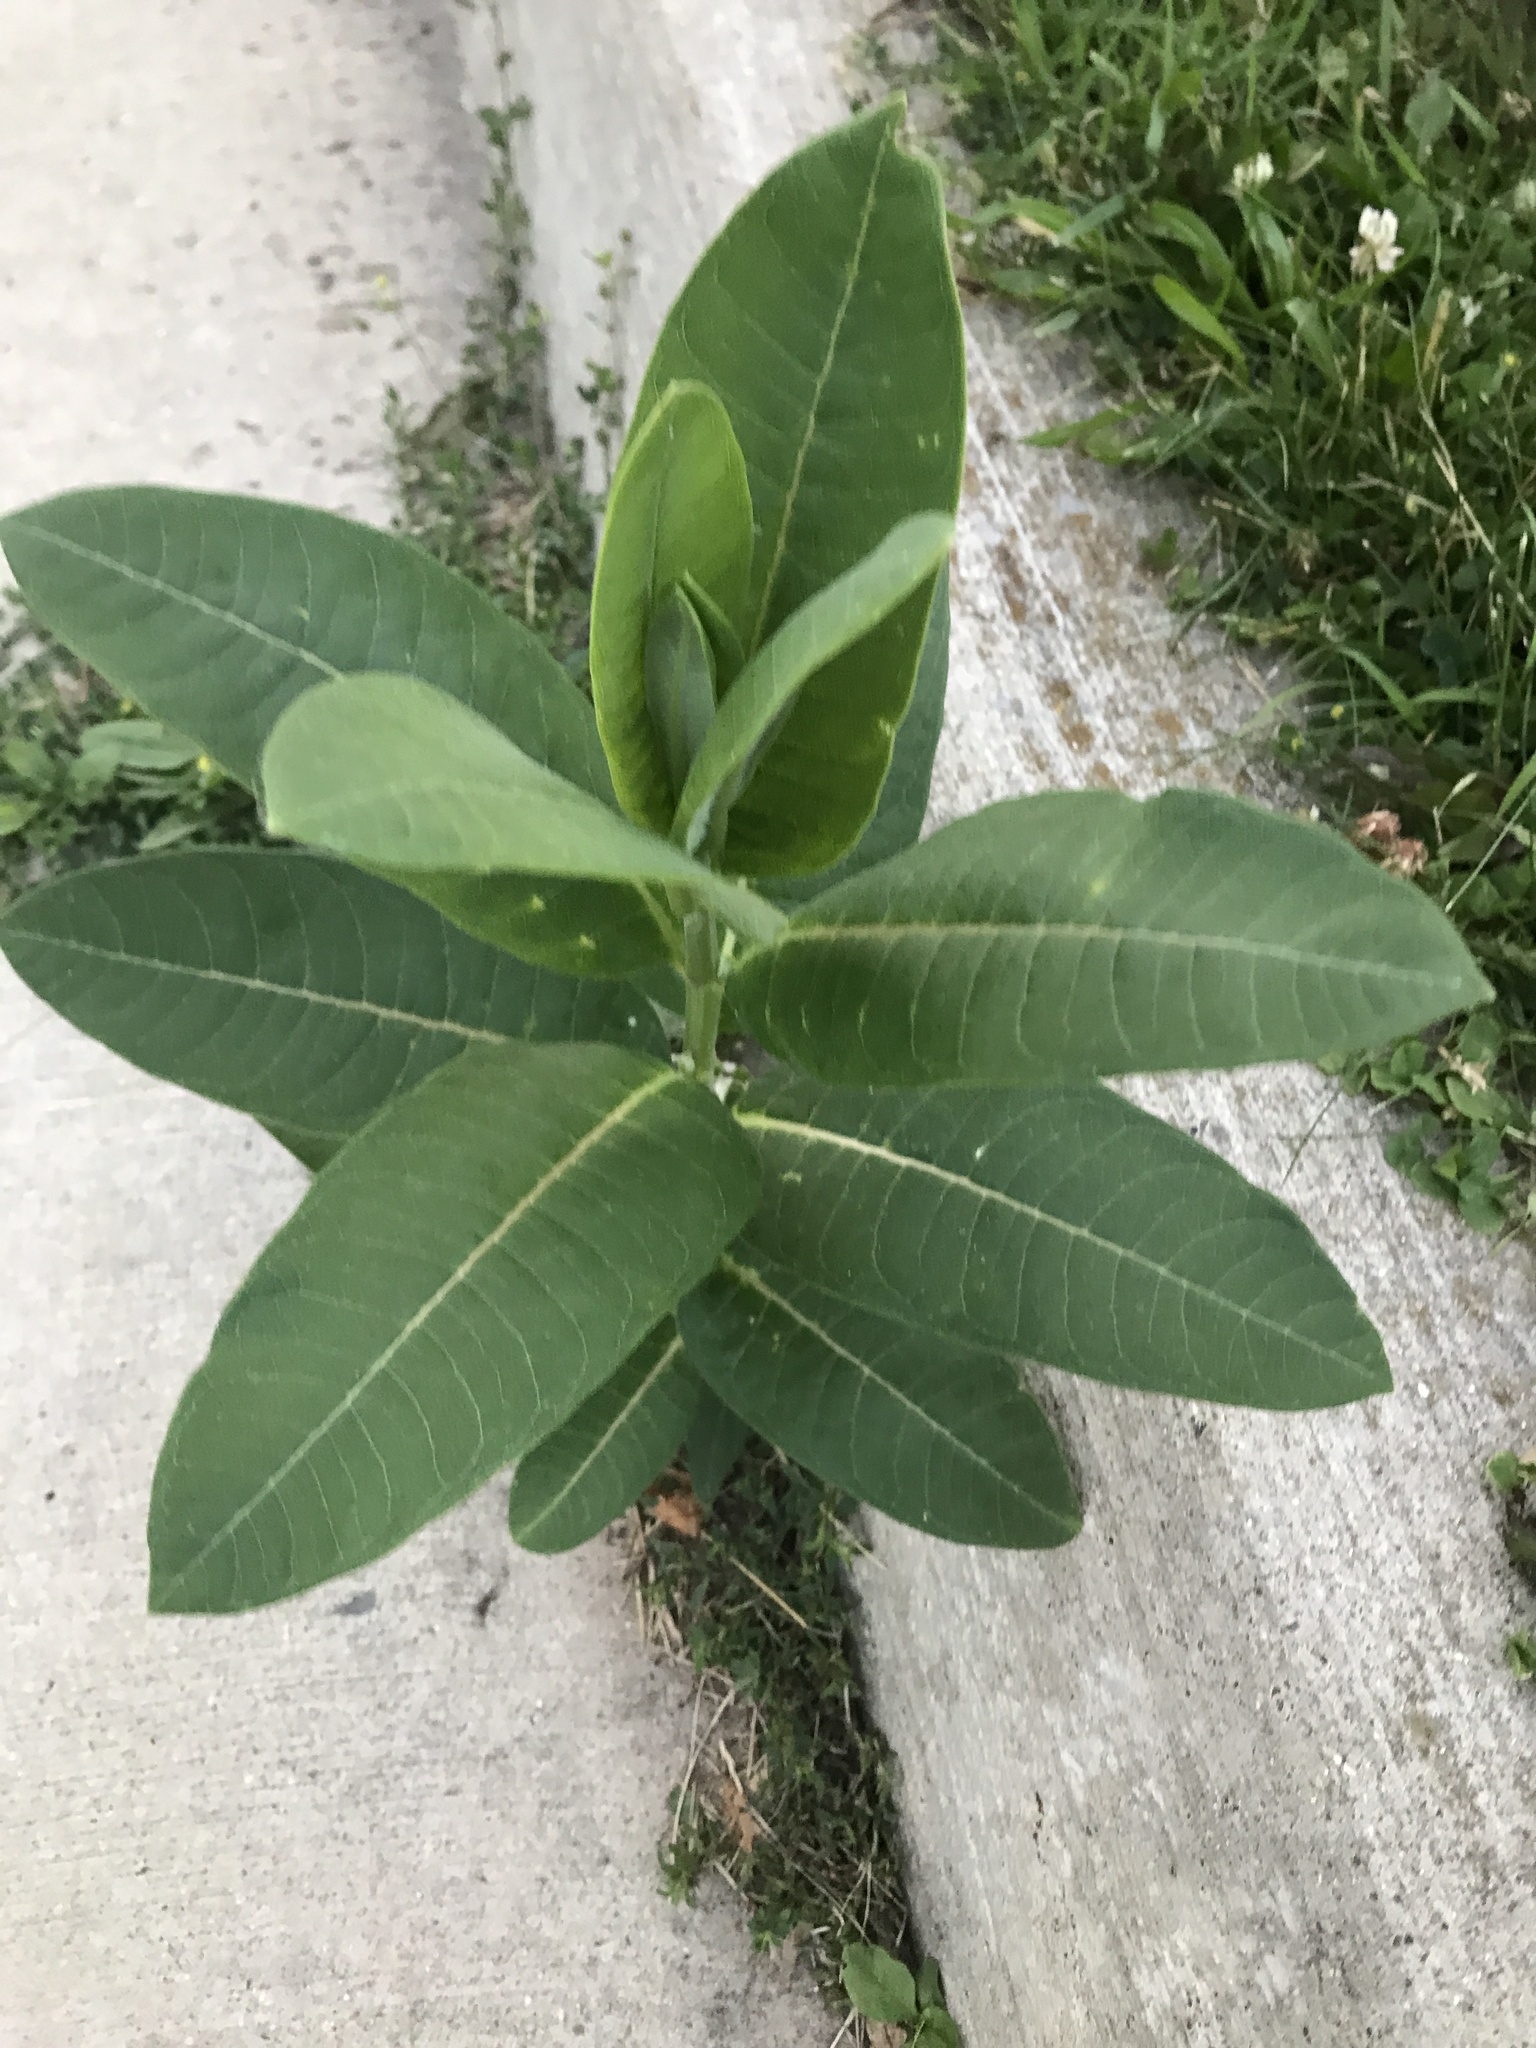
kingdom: Plantae
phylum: Tracheophyta
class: Magnoliopsida
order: Gentianales
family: Apocynaceae
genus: Asclepias
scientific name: Asclepias syriaca
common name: Common milkweed
